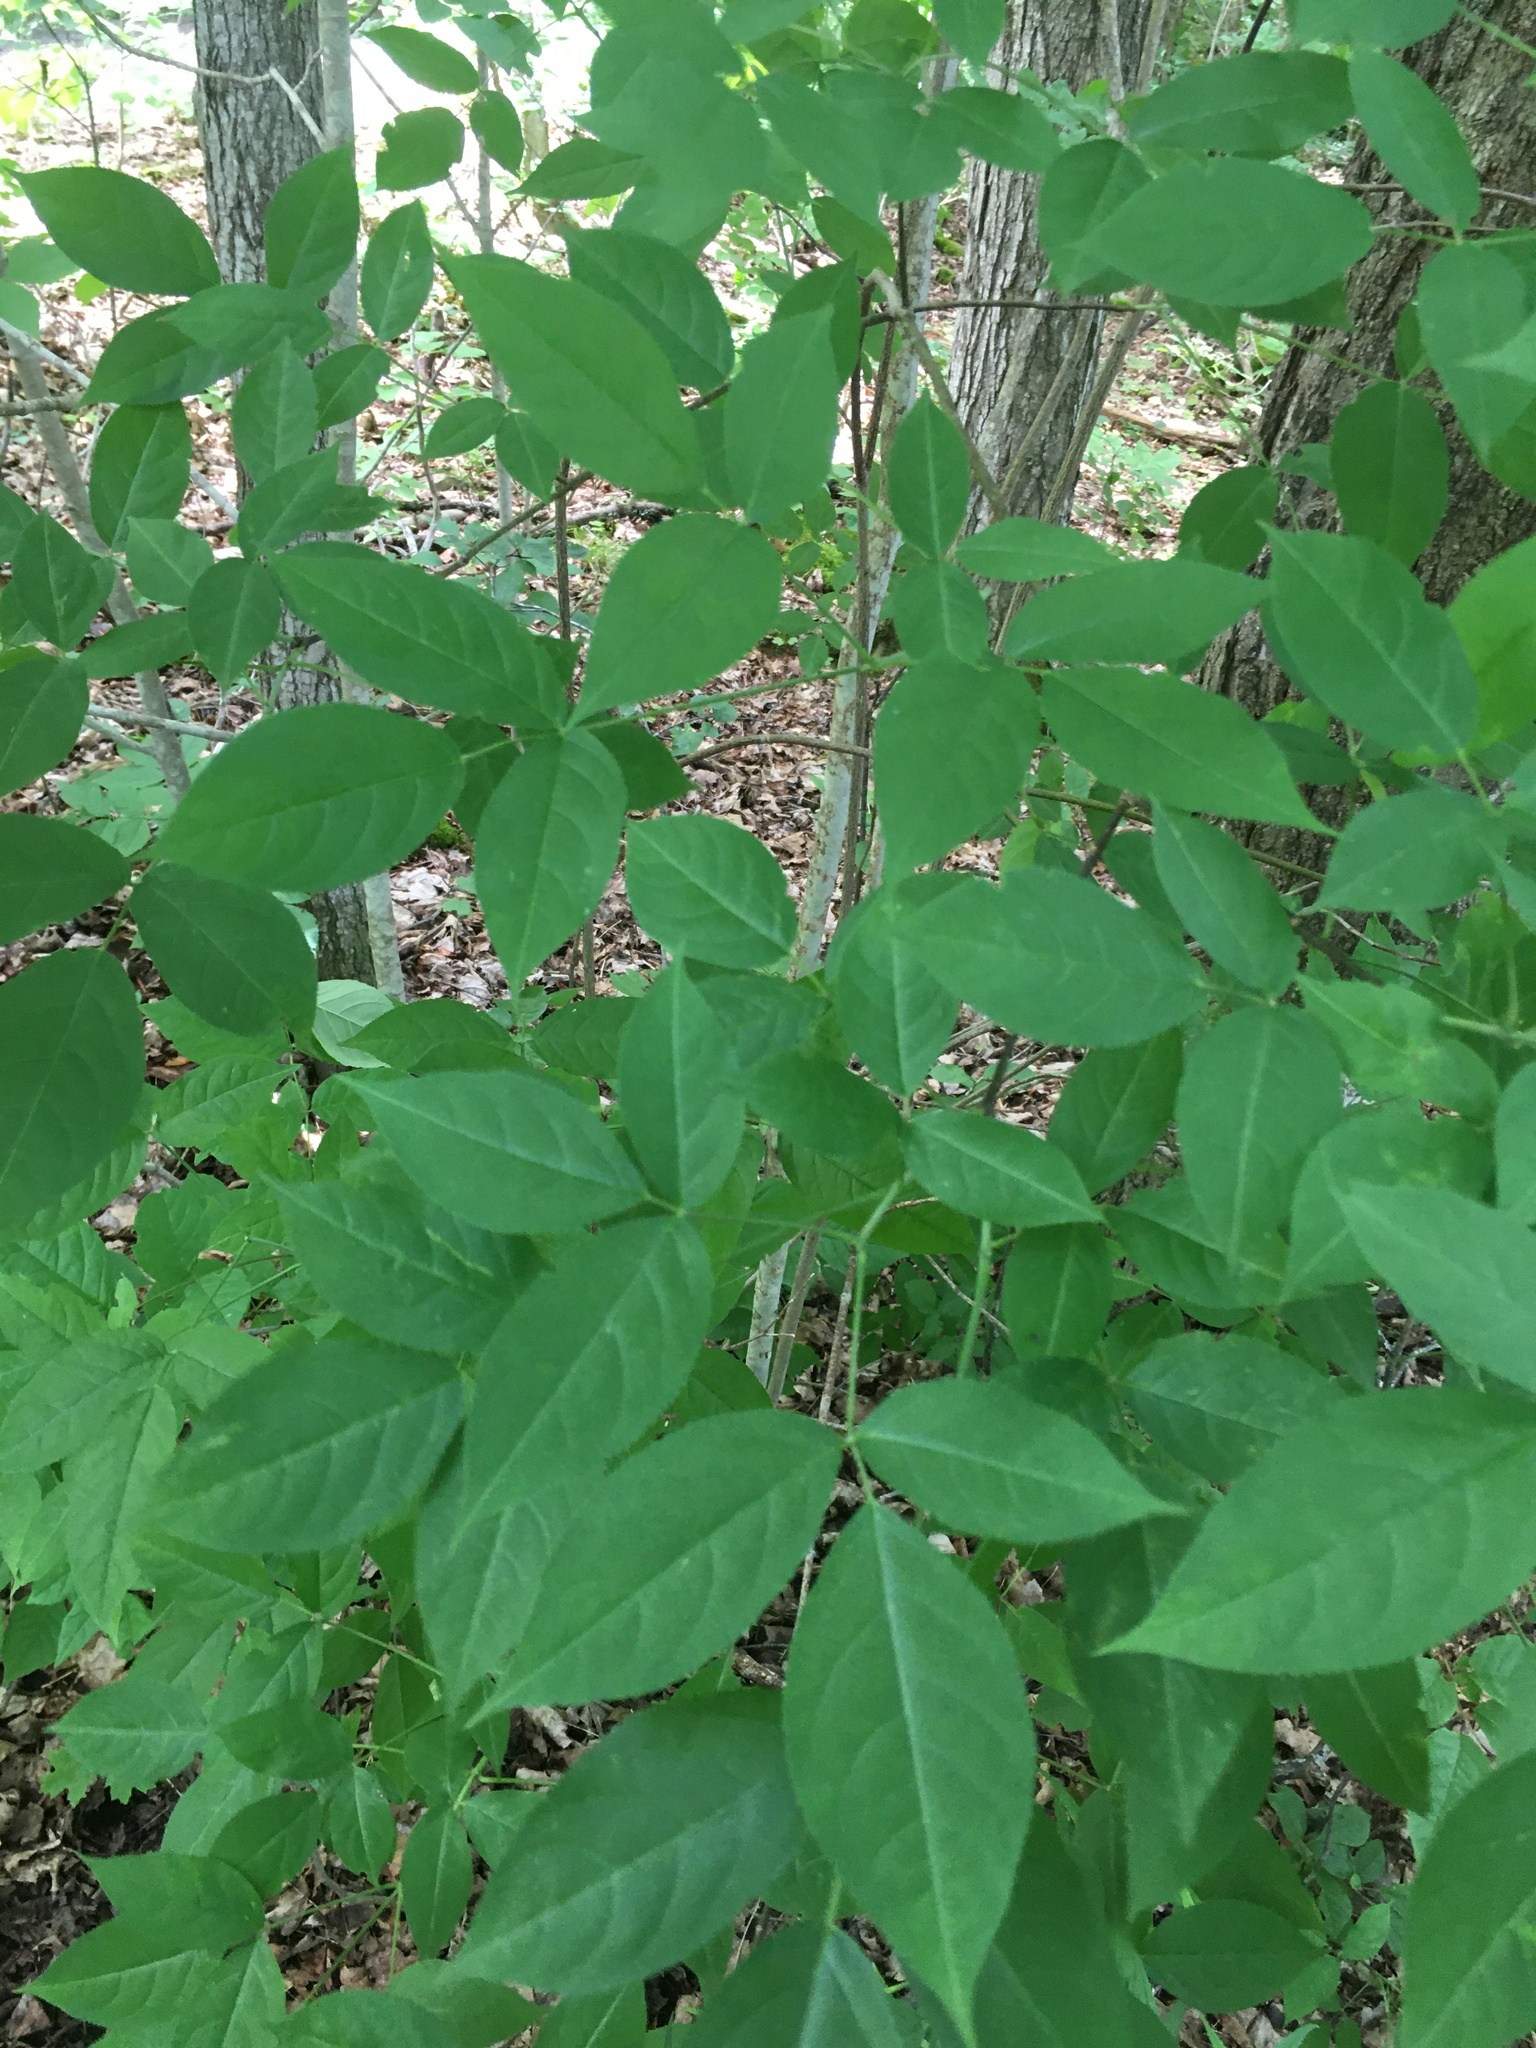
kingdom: Plantae
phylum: Tracheophyta
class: Magnoliopsida
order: Crossosomatales
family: Staphyleaceae
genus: Staphylea
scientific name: Staphylea trifolia
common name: American bladdernut
